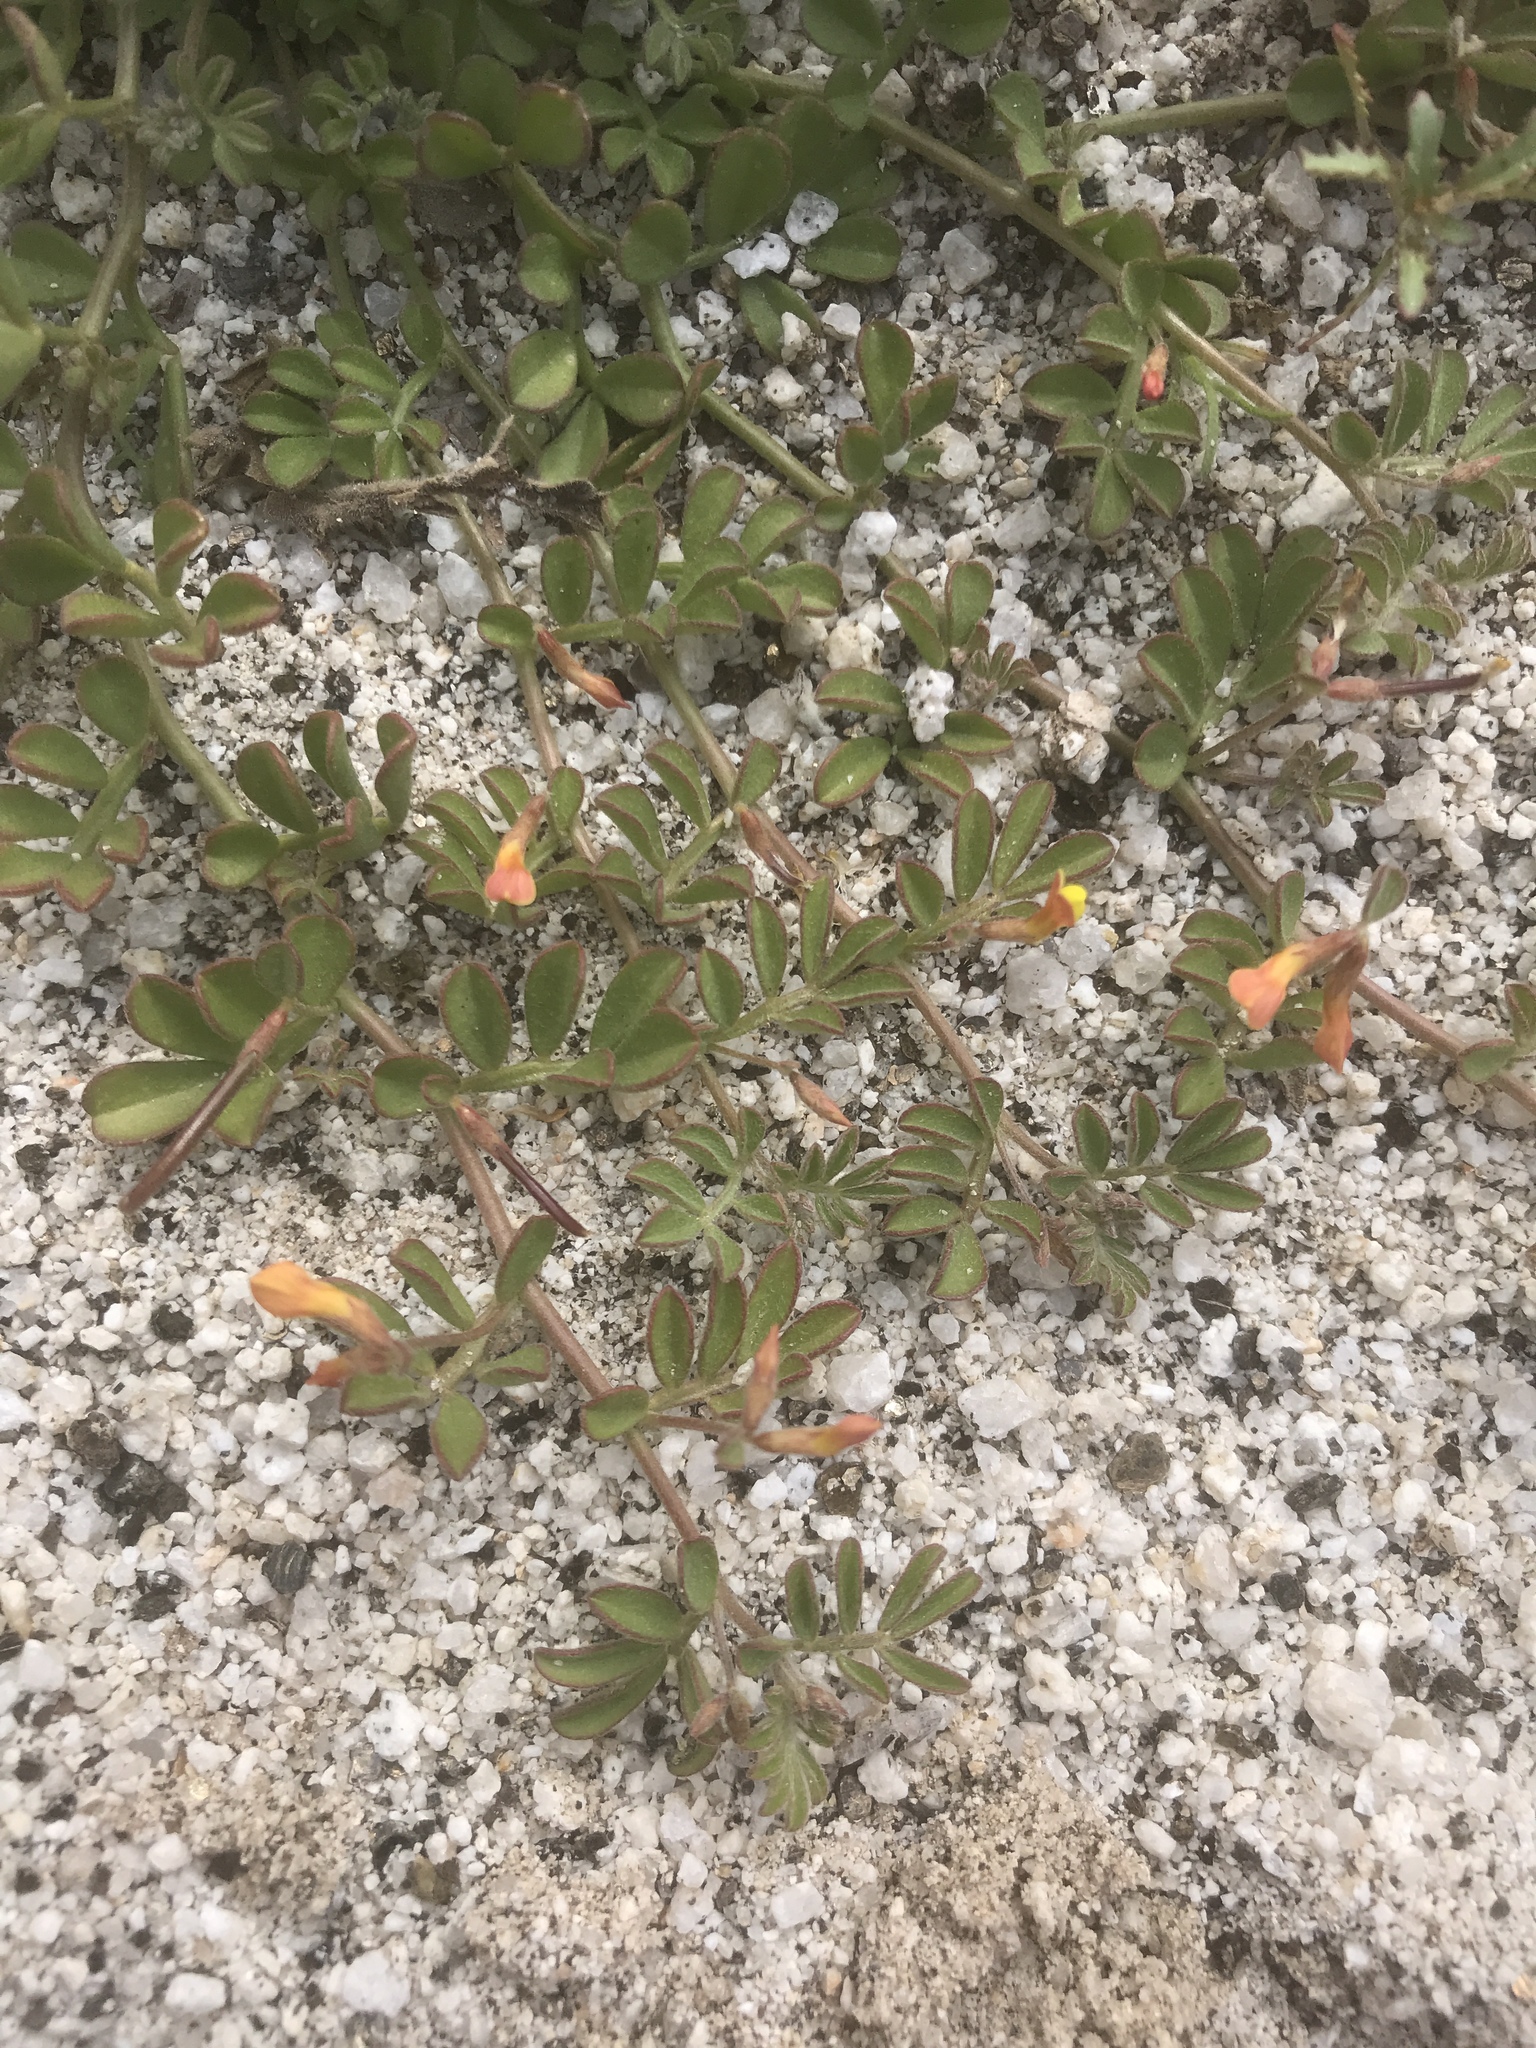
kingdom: Plantae
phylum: Tracheophyta
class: Magnoliopsida
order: Fabales
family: Fabaceae
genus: Acmispon
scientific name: Acmispon strigosus
